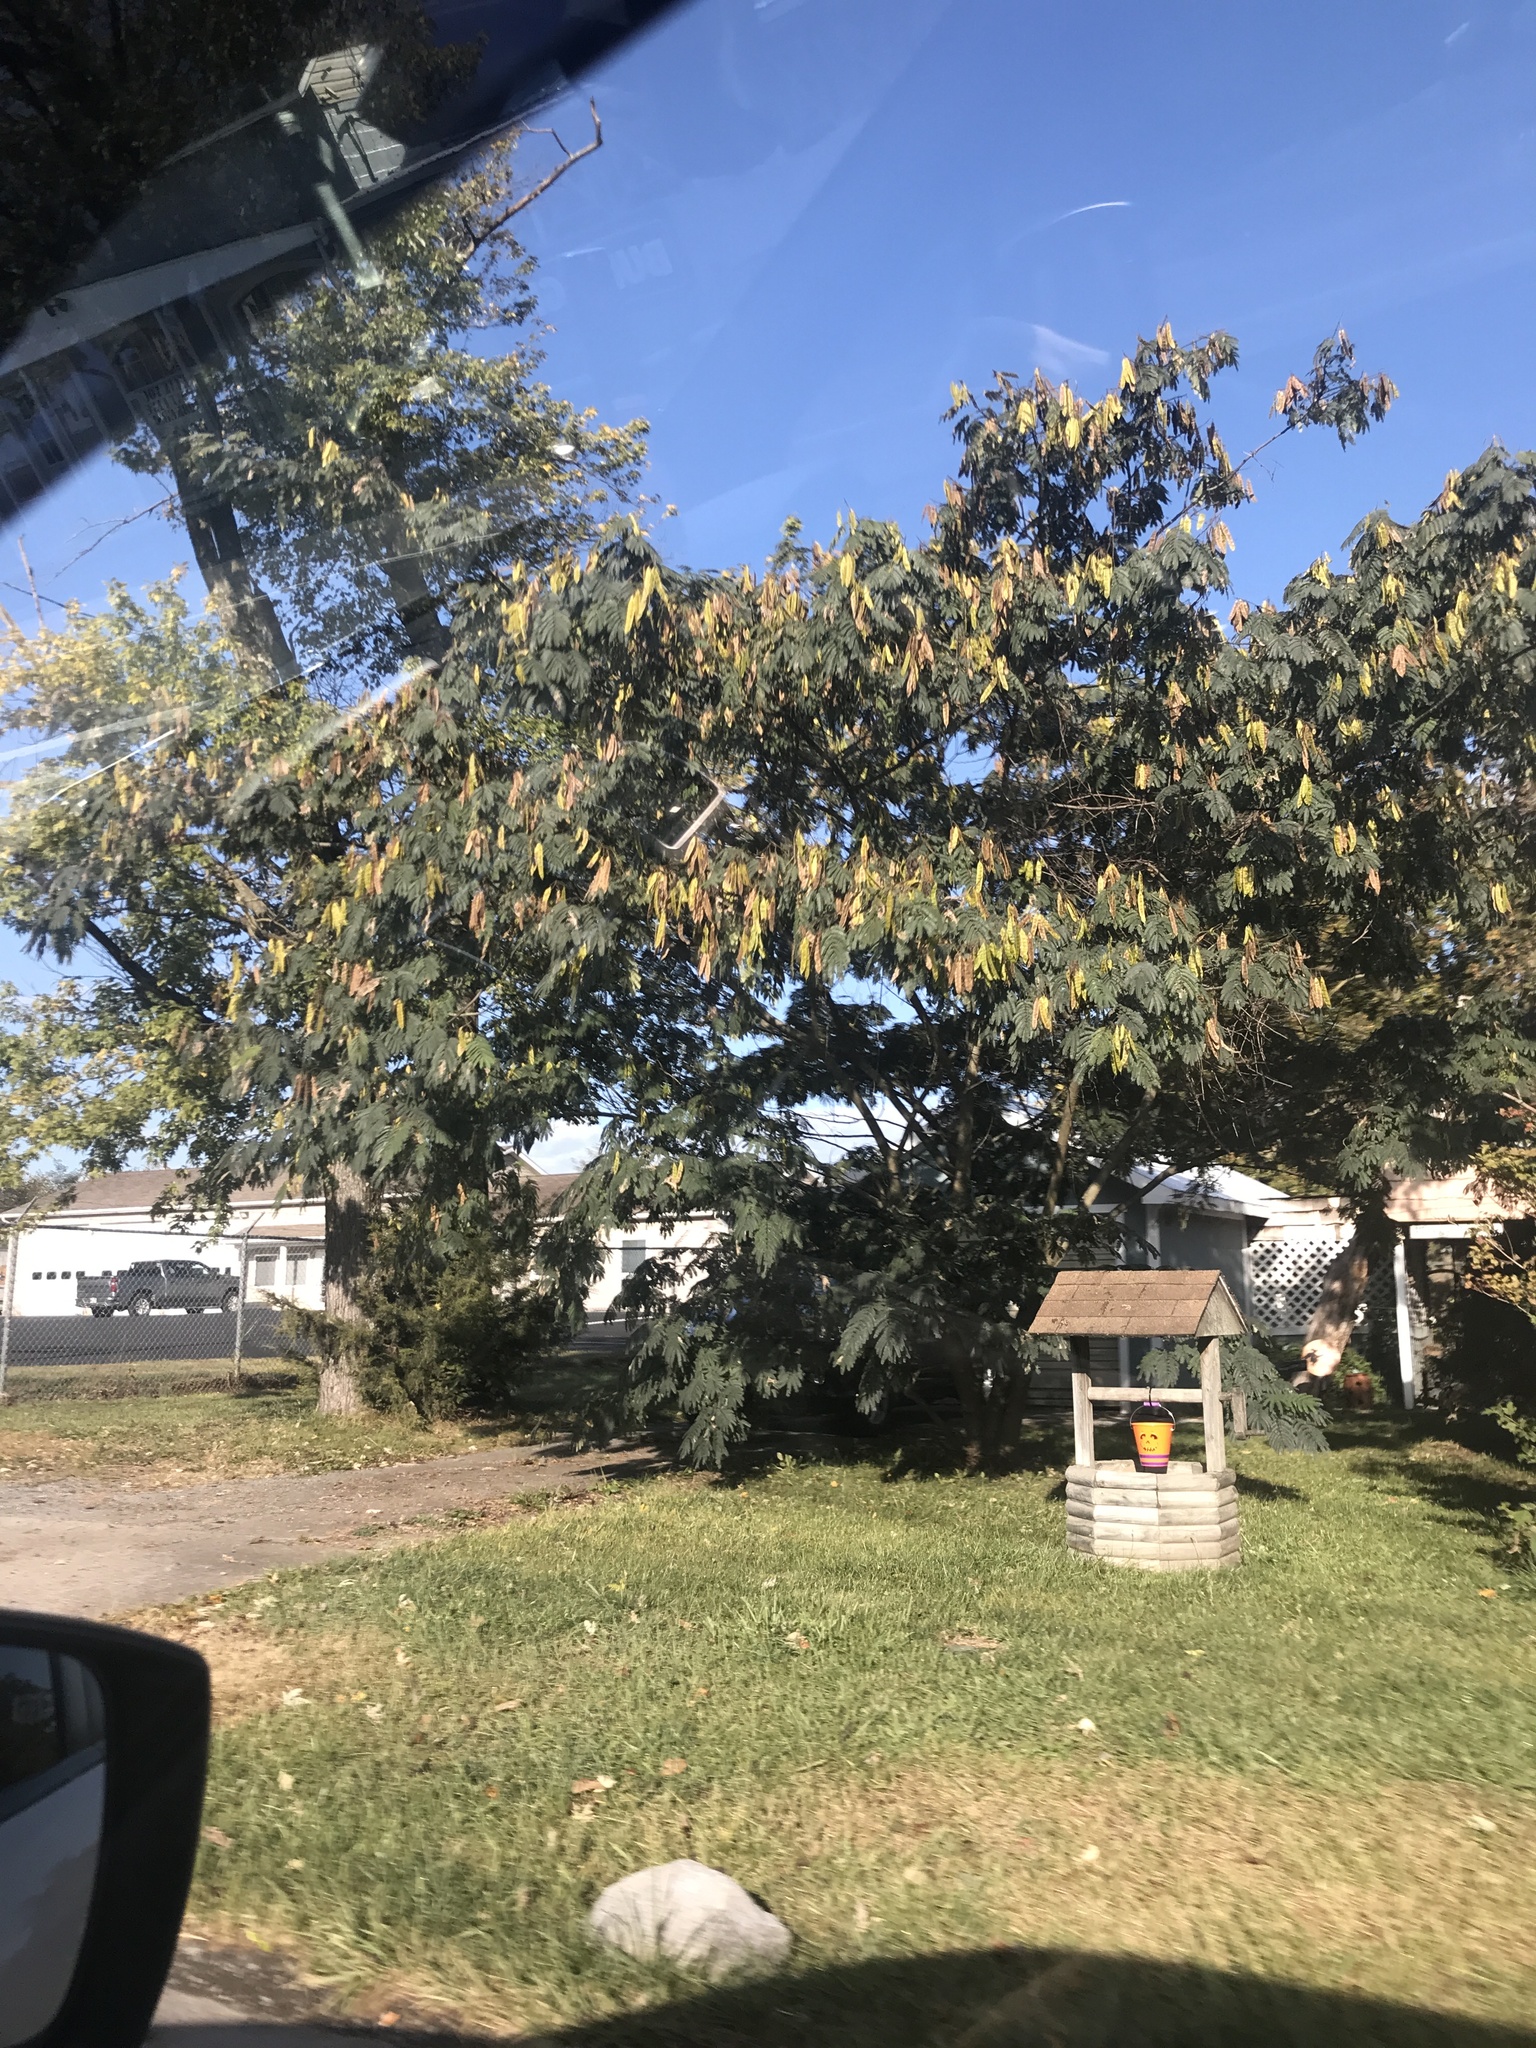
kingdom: Plantae
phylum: Tracheophyta
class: Magnoliopsida
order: Fabales
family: Fabaceae
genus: Albizia
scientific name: Albizia julibrissin
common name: Silktree
